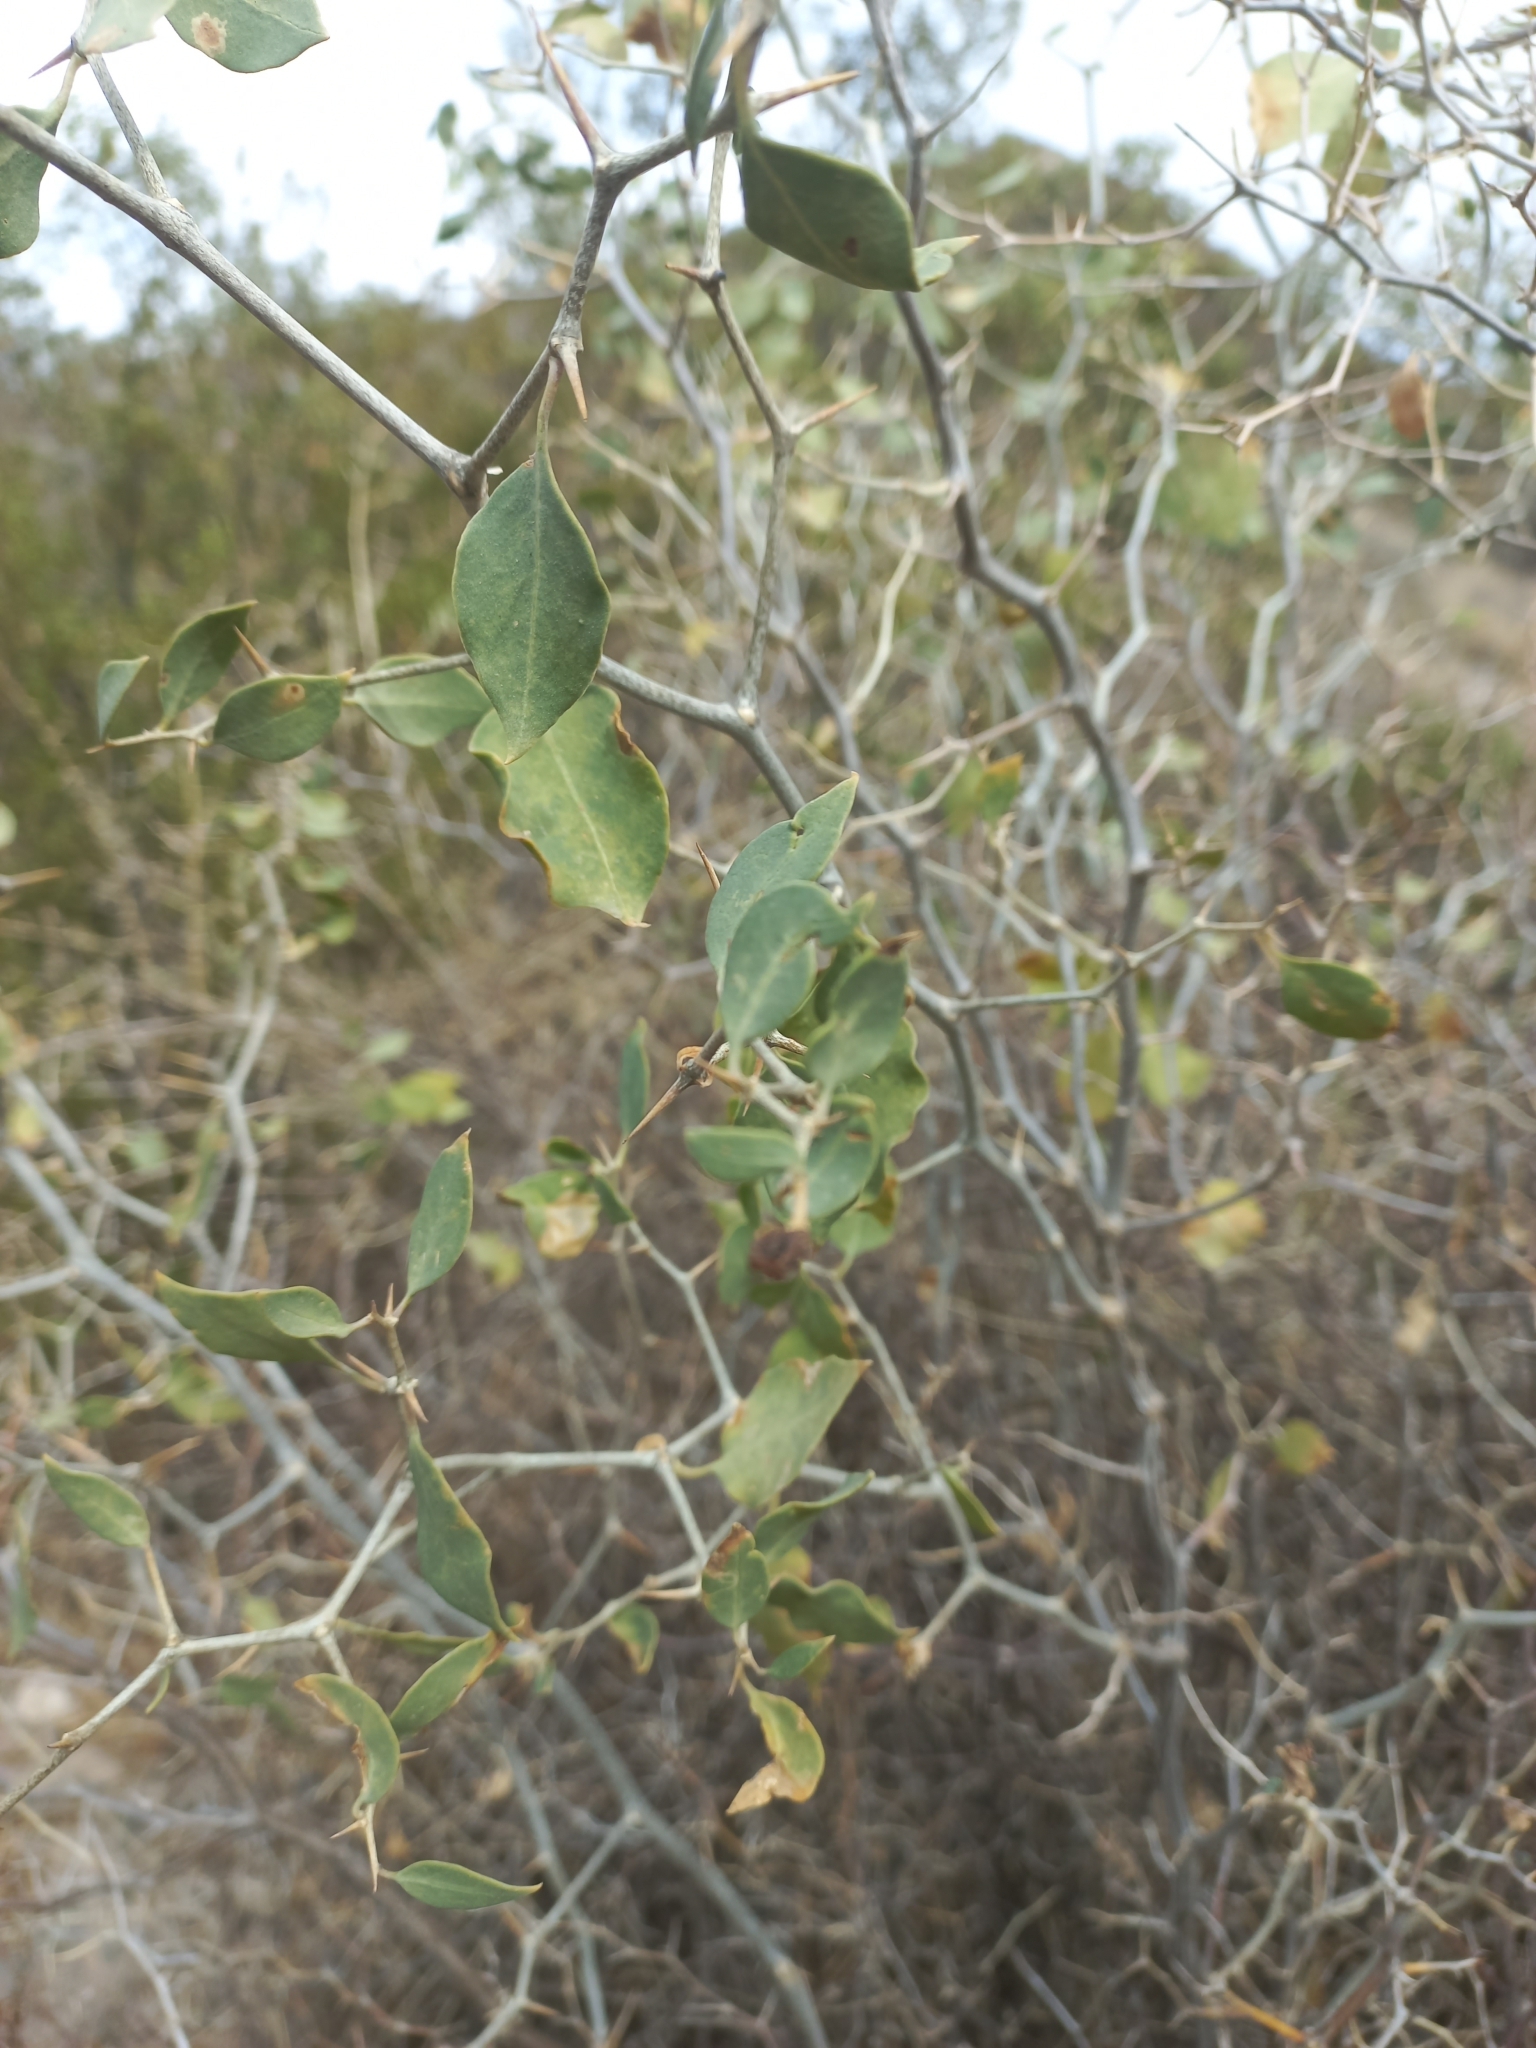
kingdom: Plantae
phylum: Tracheophyta
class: Magnoliopsida
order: Solanales
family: Solanaceae
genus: Lycium
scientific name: Lycium boerhaaviifolium
